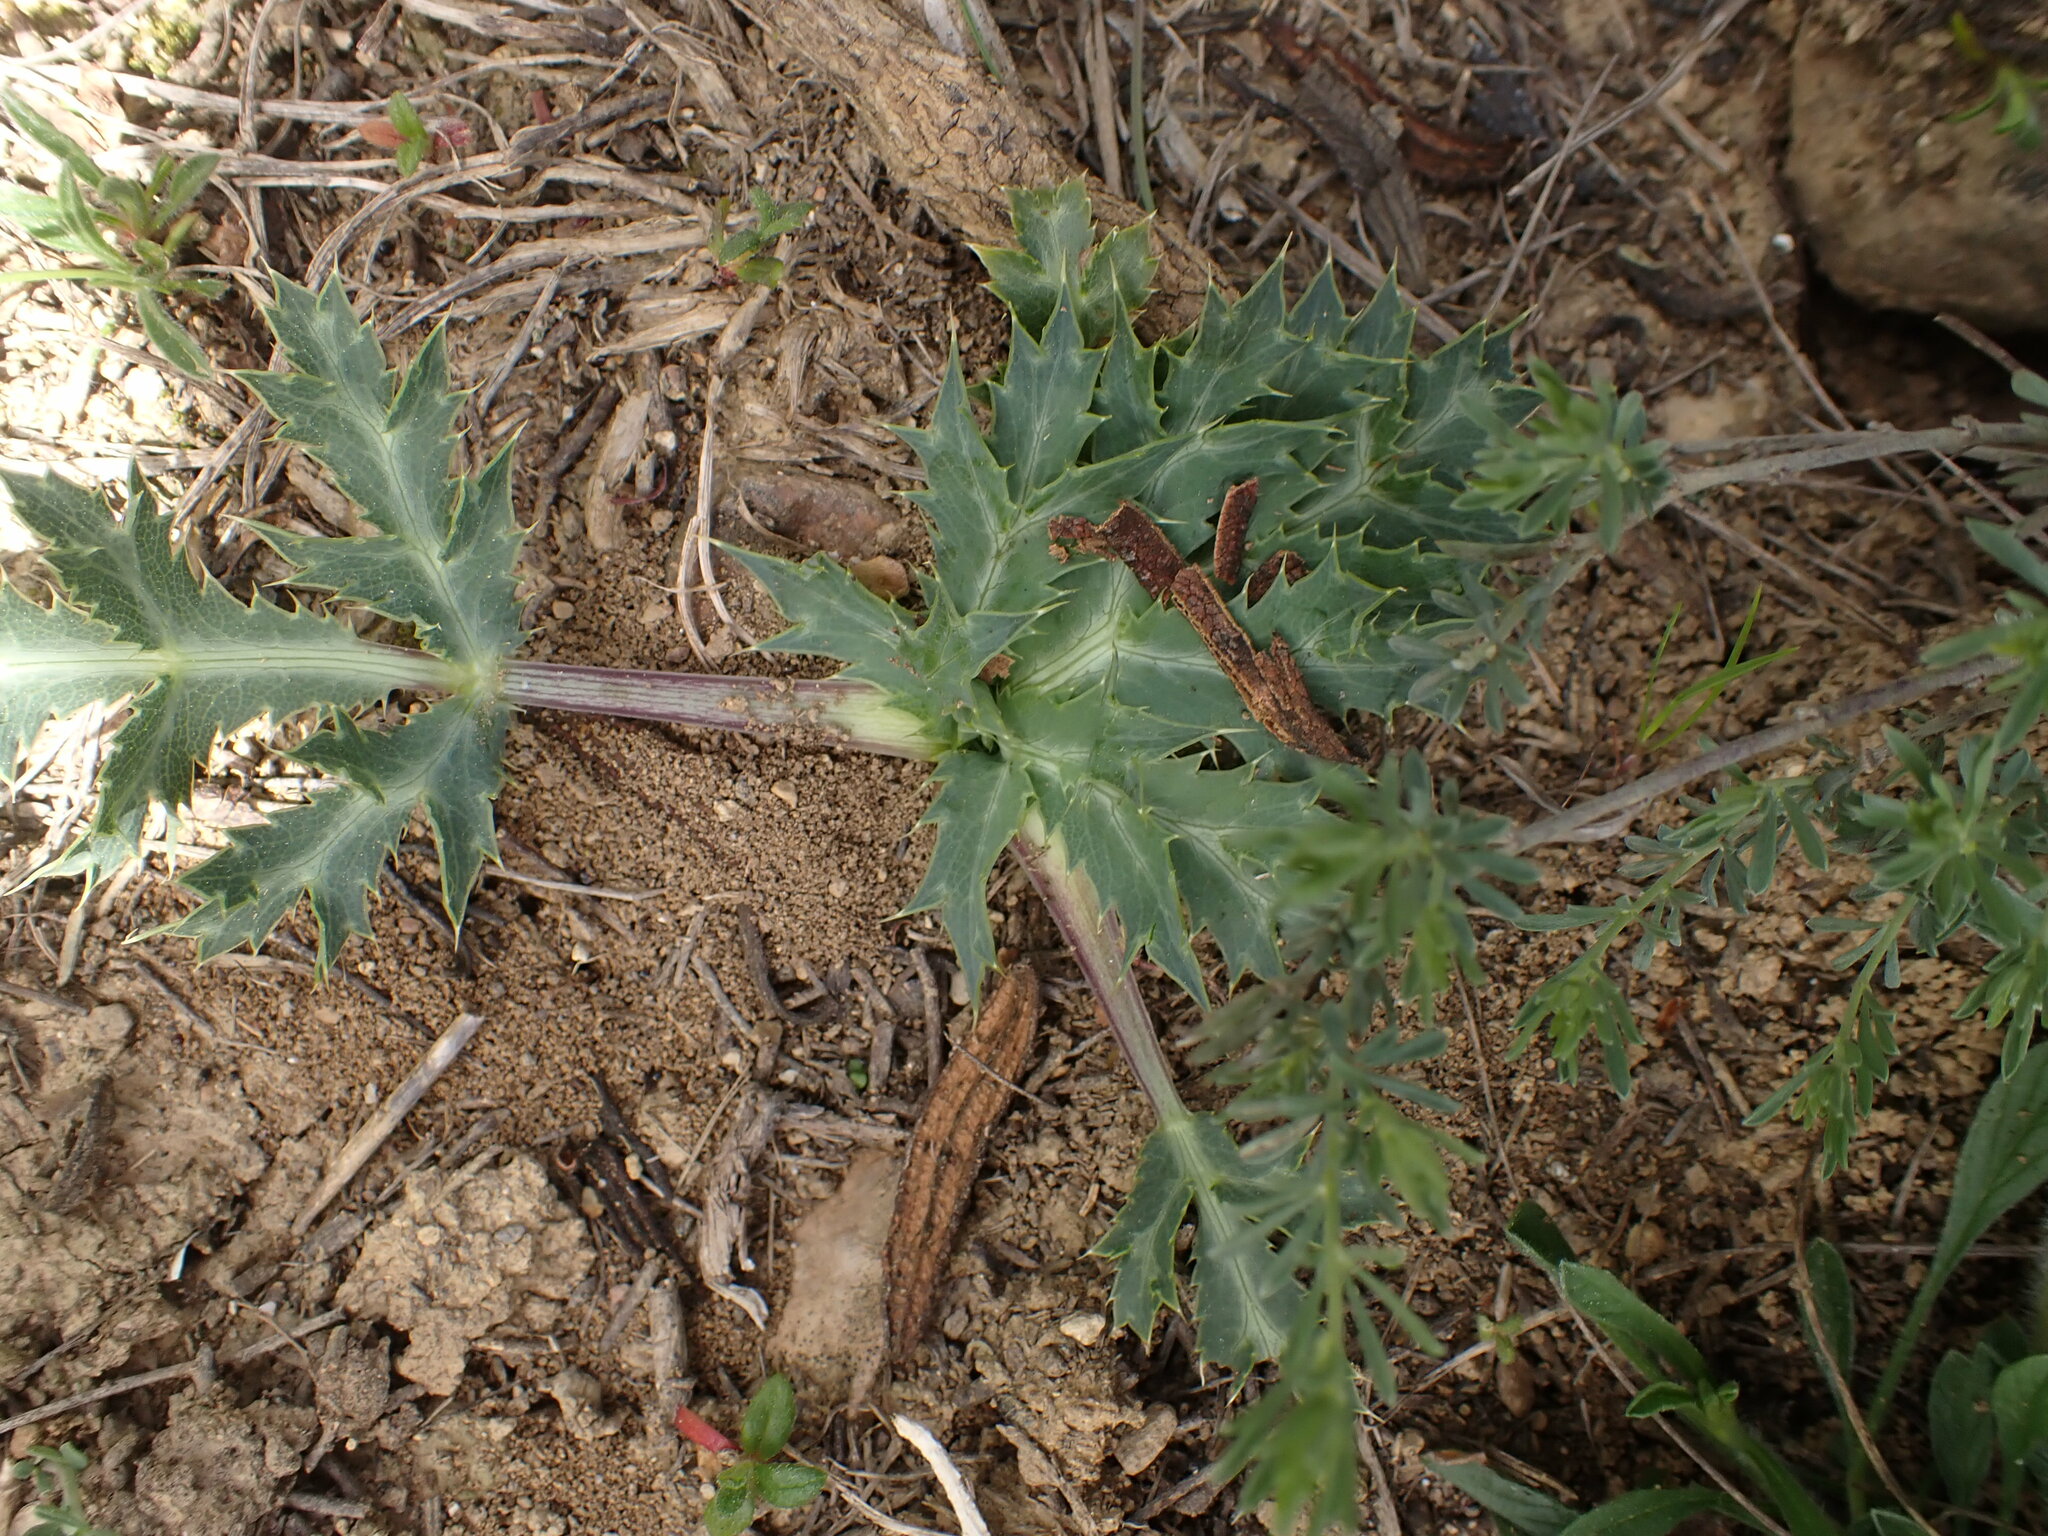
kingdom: Plantae
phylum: Tracheophyta
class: Magnoliopsida
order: Apiales
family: Apiaceae
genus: Eryngium
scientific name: Eryngium campestre
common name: Field eryngo
